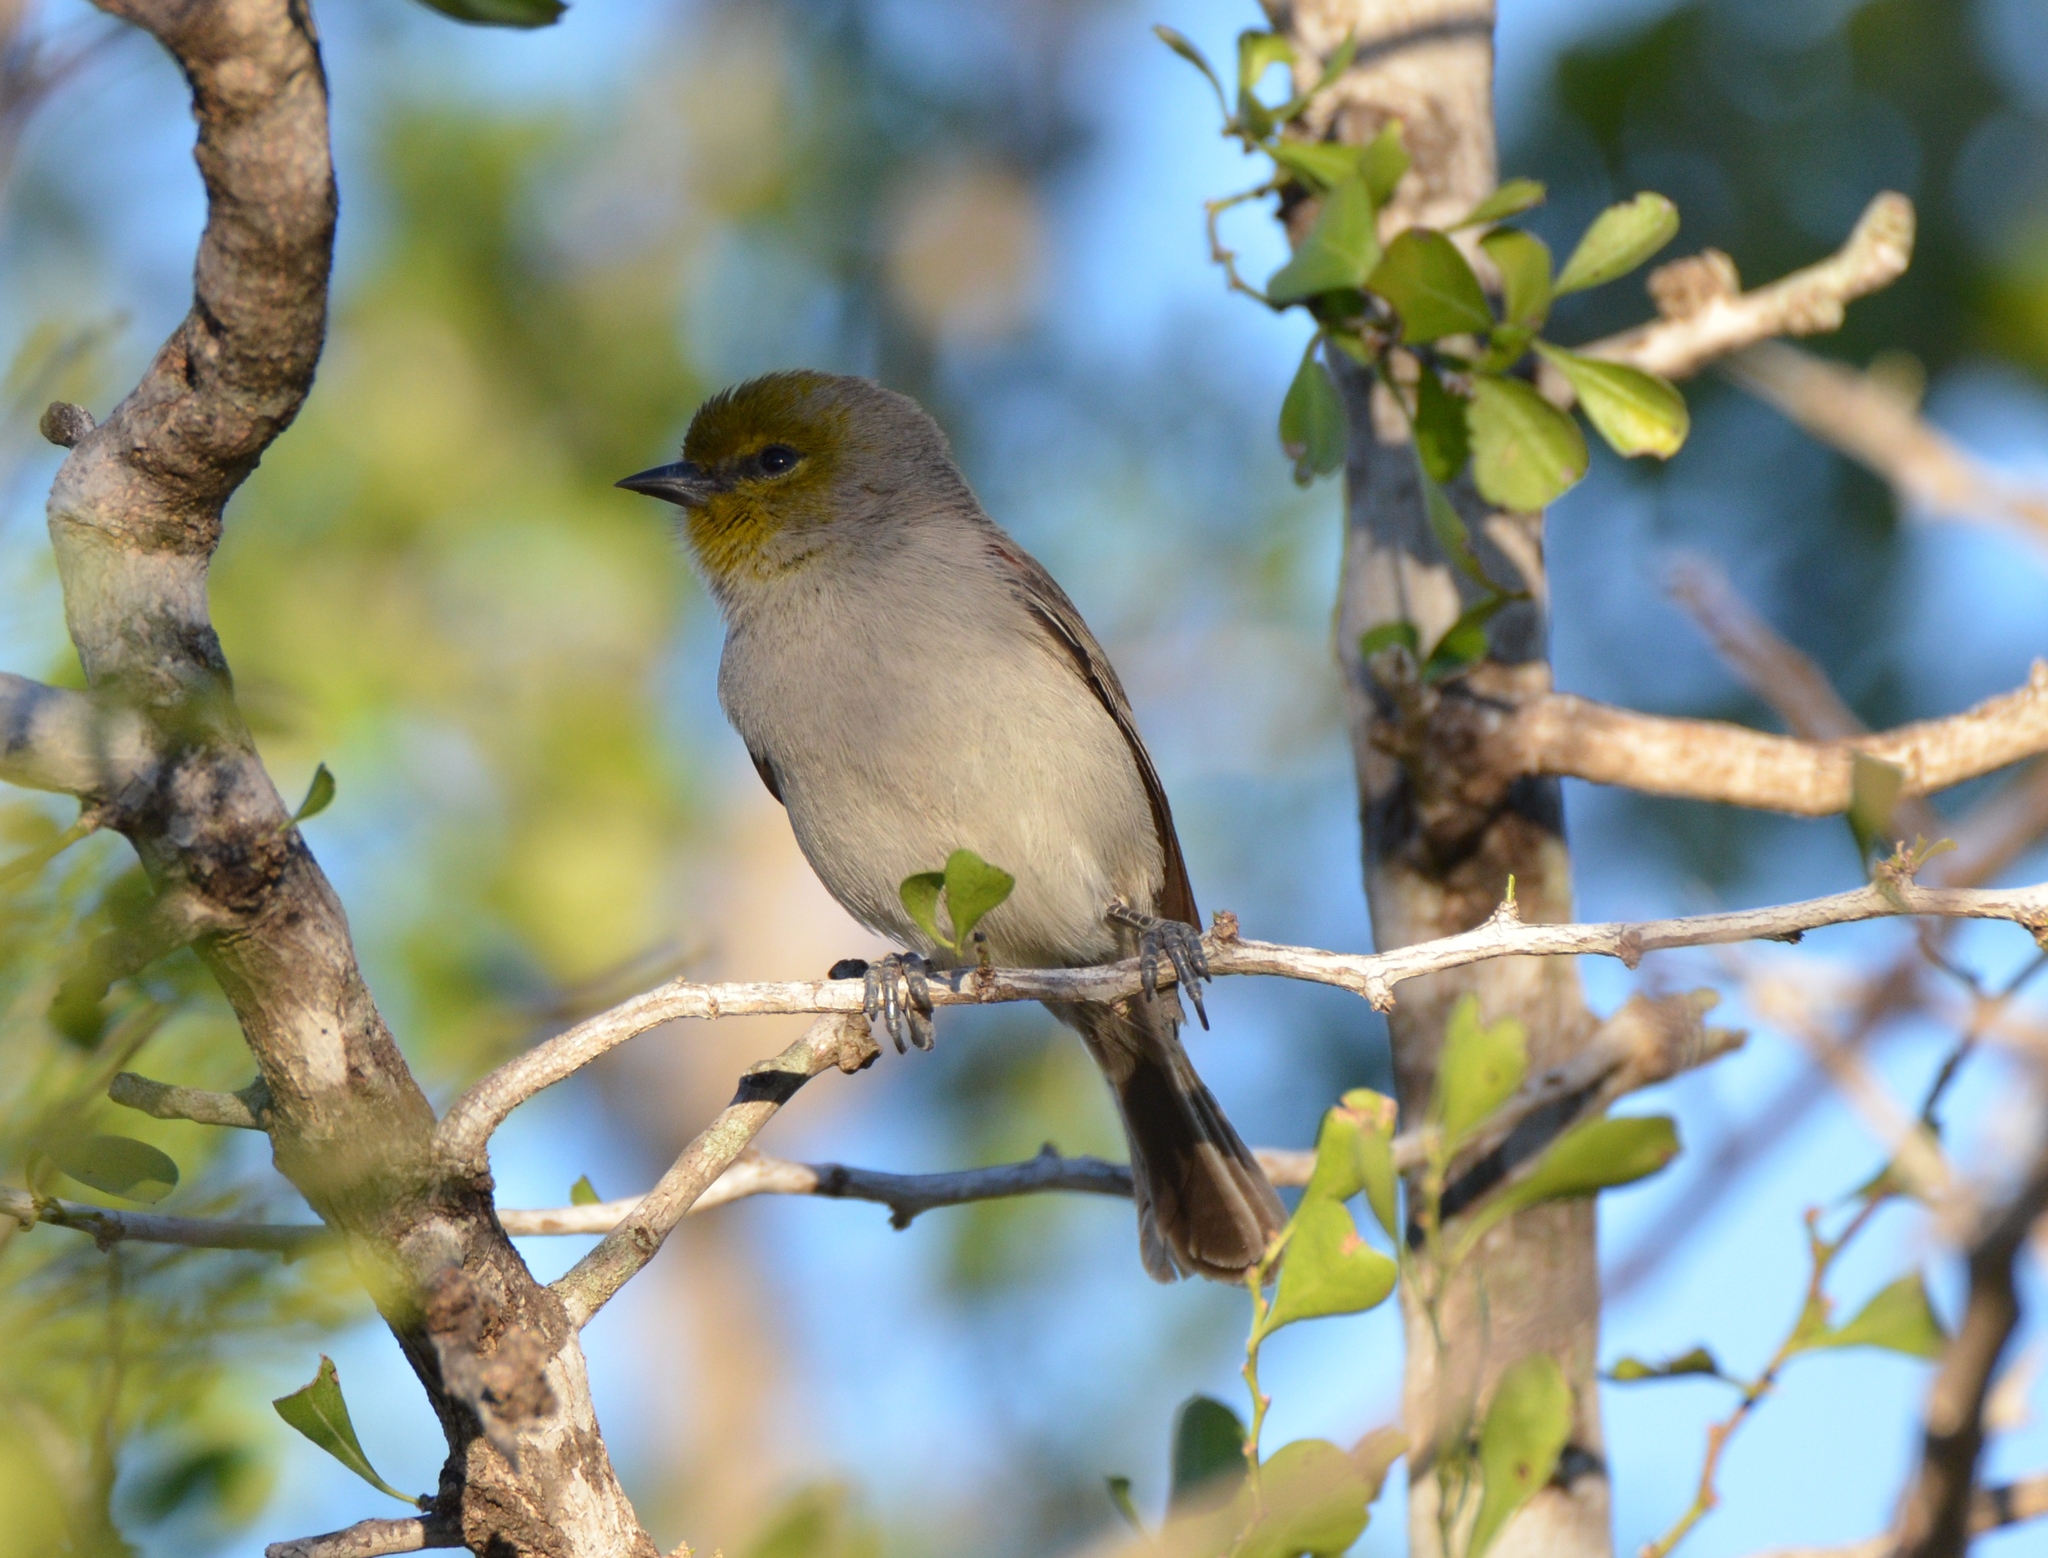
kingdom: Animalia
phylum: Chordata
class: Aves
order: Passeriformes
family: Remizidae
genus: Auriparus
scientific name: Auriparus flaviceps
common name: Verdin
